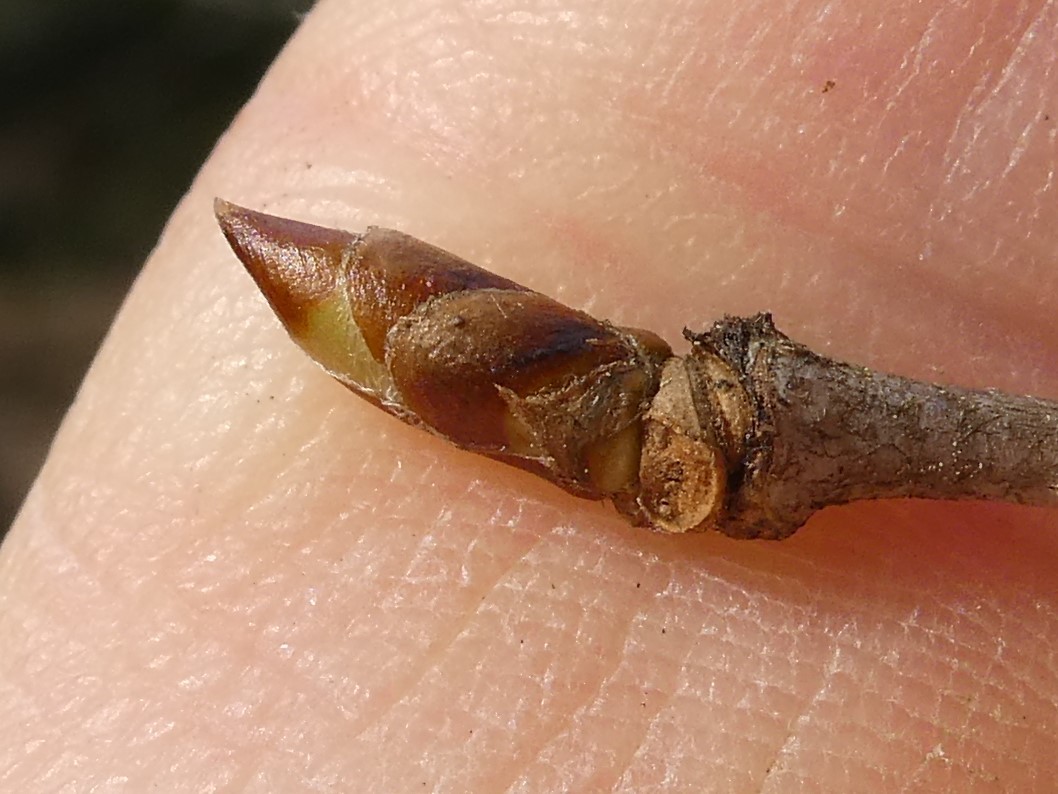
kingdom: Plantae
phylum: Tracheophyta
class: Magnoliopsida
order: Fagales
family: Betulaceae
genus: Betula
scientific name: Betula alleghaniensis
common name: Yellow birch
